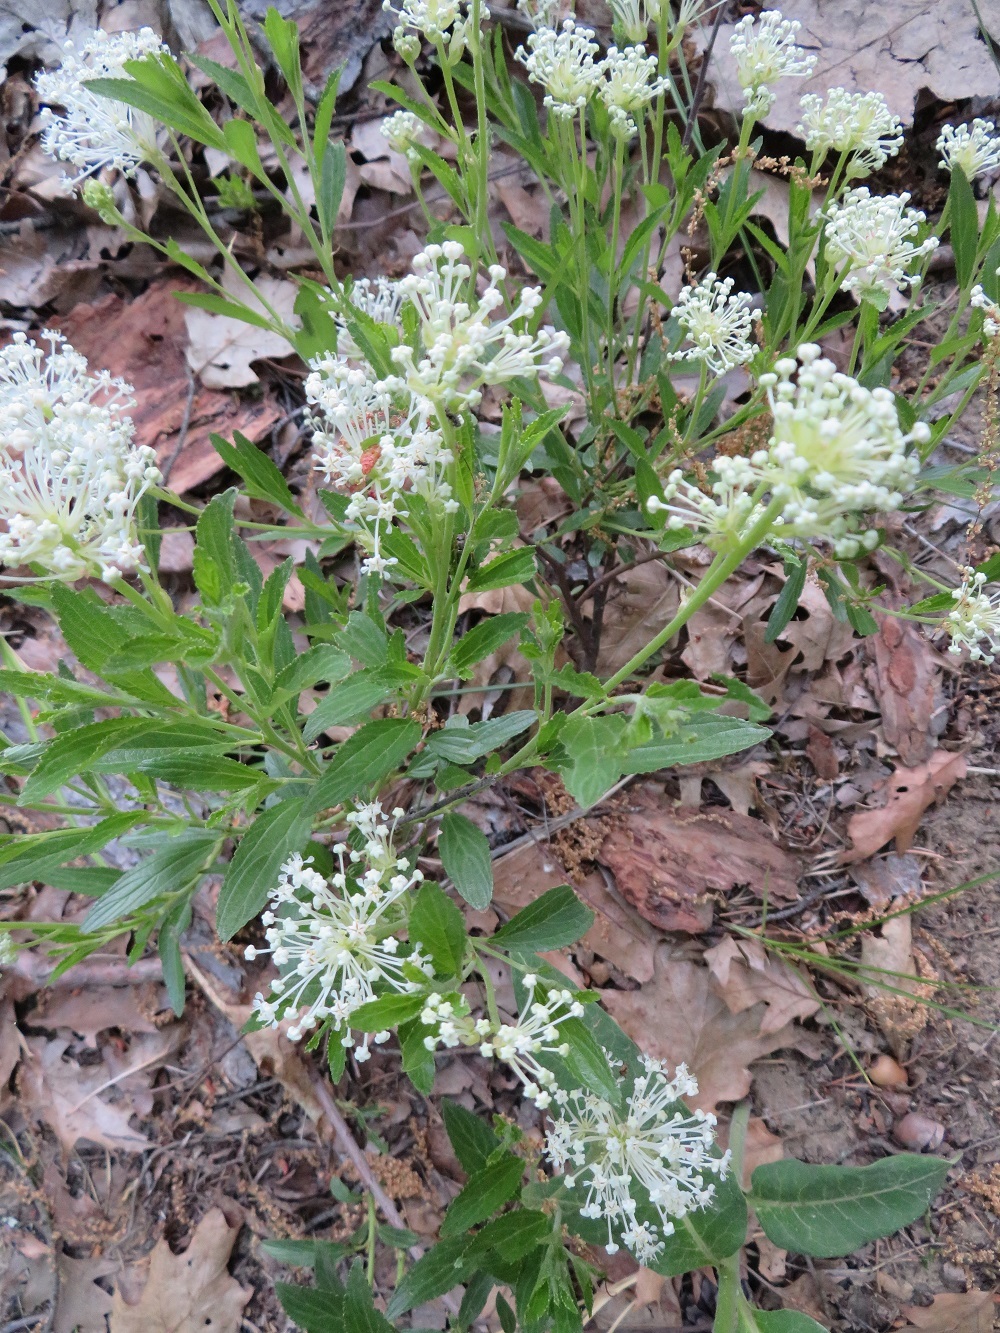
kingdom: Plantae
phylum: Tracheophyta
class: Magnoliopsida
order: Rosales
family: Rhamnaceae
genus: Ceanothus
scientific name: Ceanothus herbaceus
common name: Inland ceanothus
